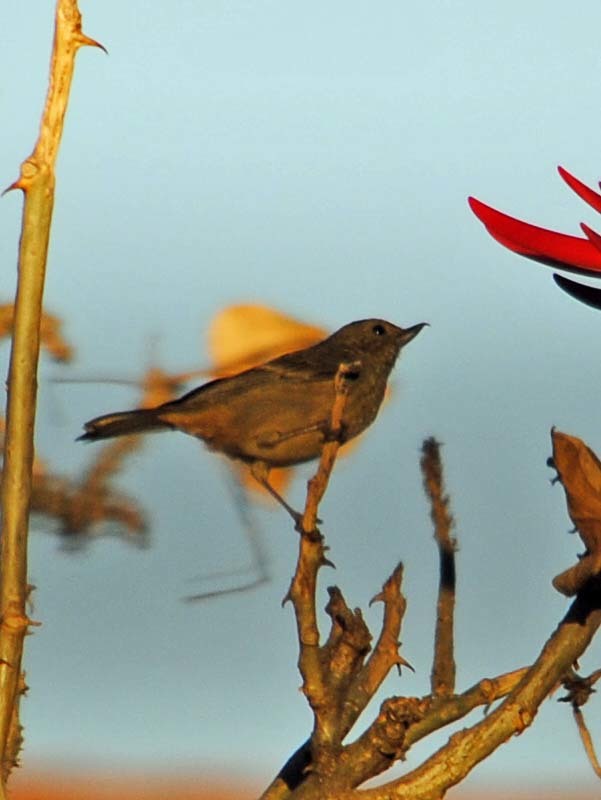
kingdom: Animalia
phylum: Chordata
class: Aves
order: Passeriformes
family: Thraupidae
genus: Diglossa
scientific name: Diglossa baritula
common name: Cinnamon-bellied flowerpiercer
